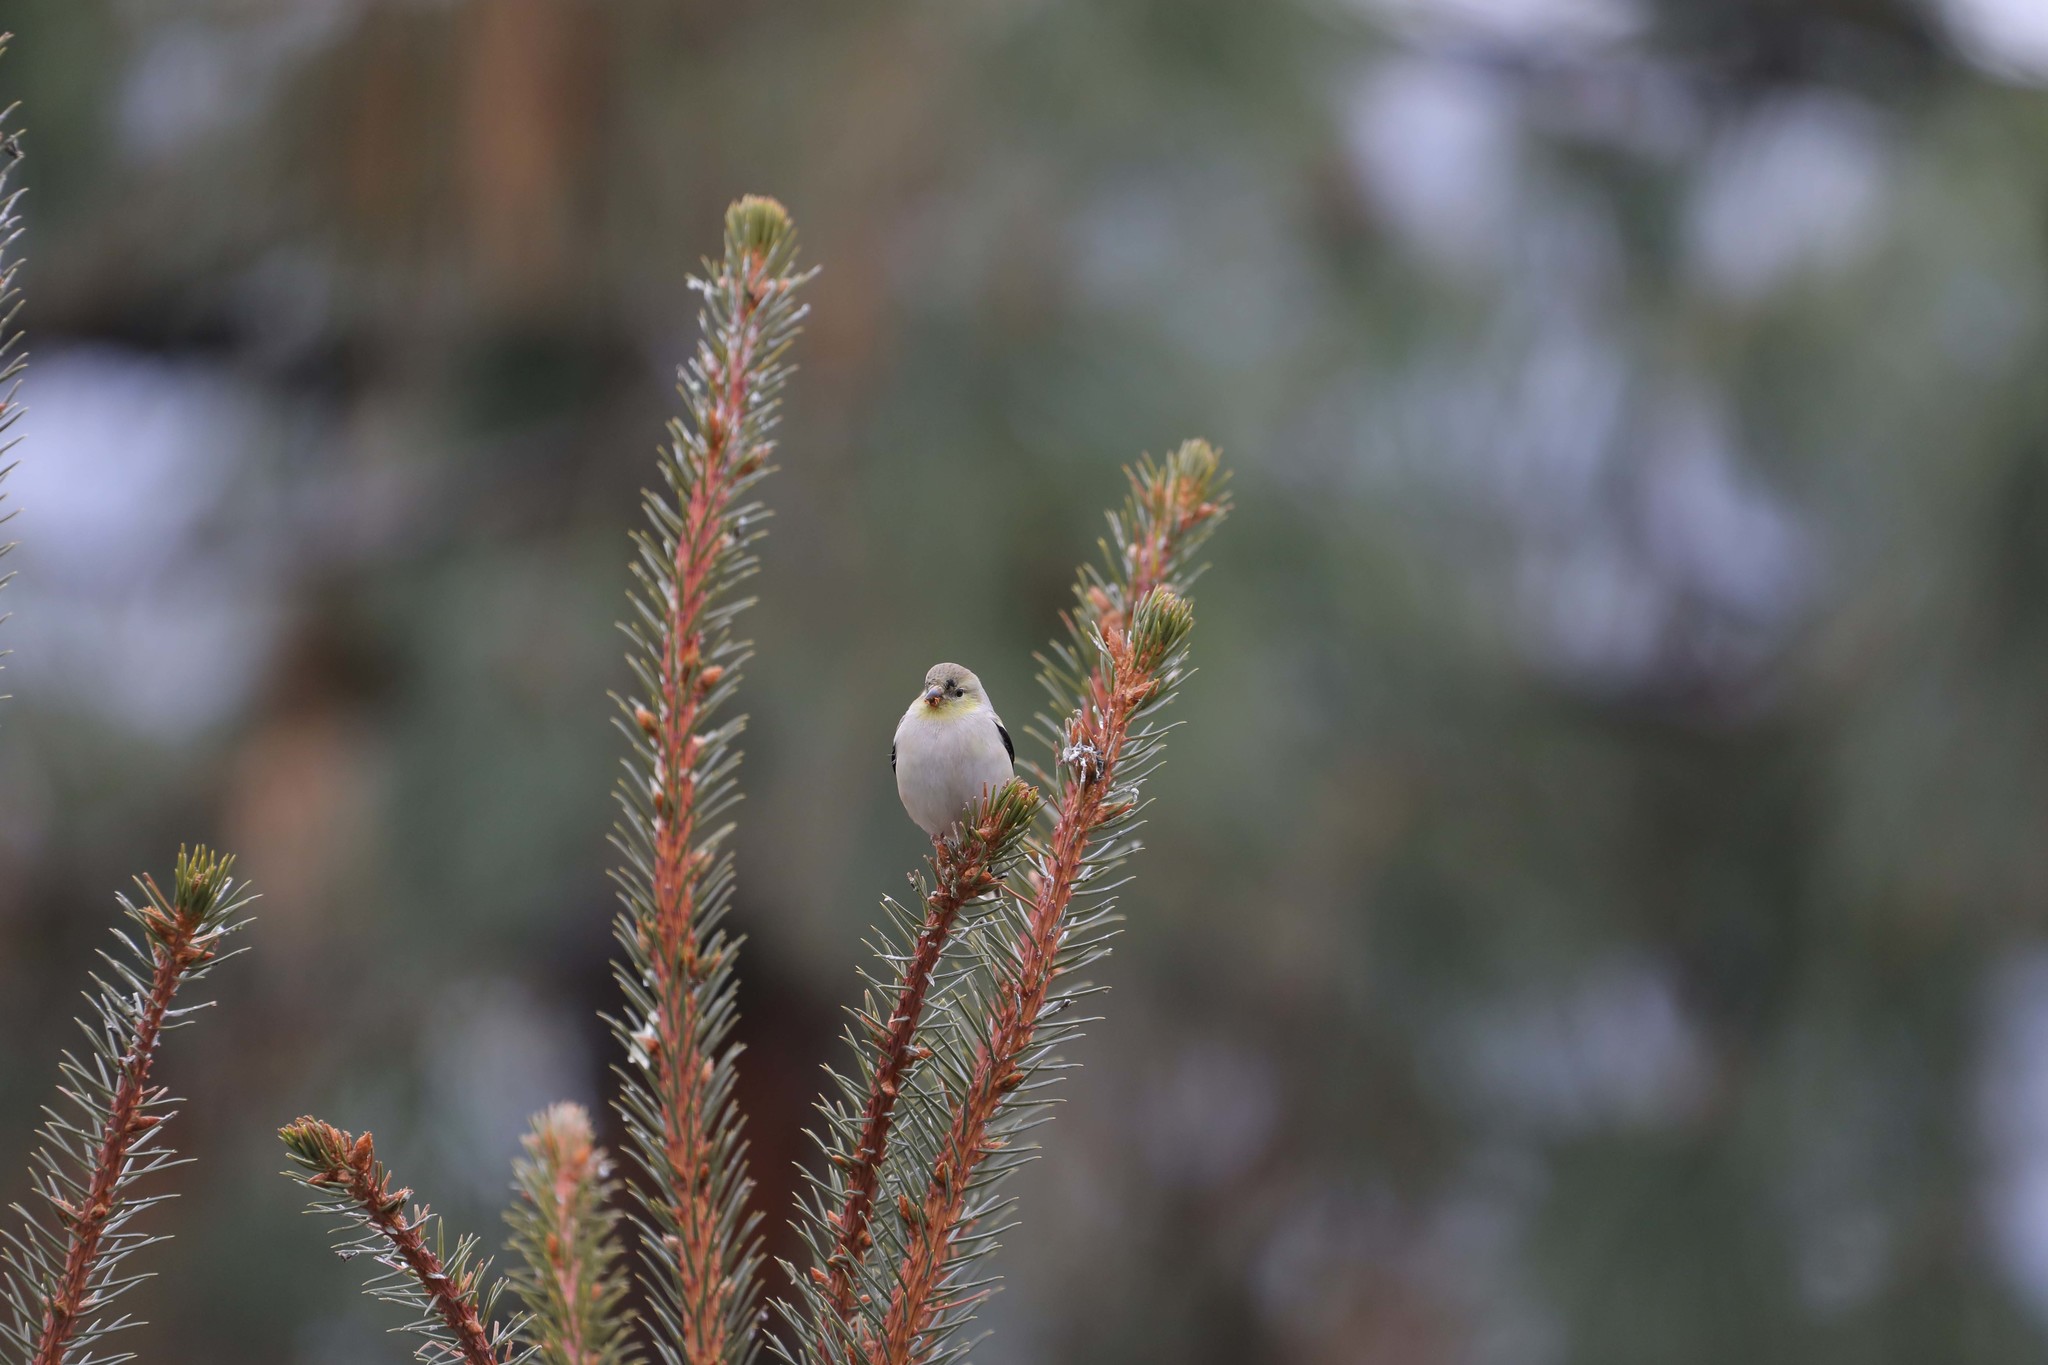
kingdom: Animalia
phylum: Chordata
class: Aves
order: Passeriformes
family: Fringillidae
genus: Spinus
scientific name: Spinus tristis
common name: American goldfinch
